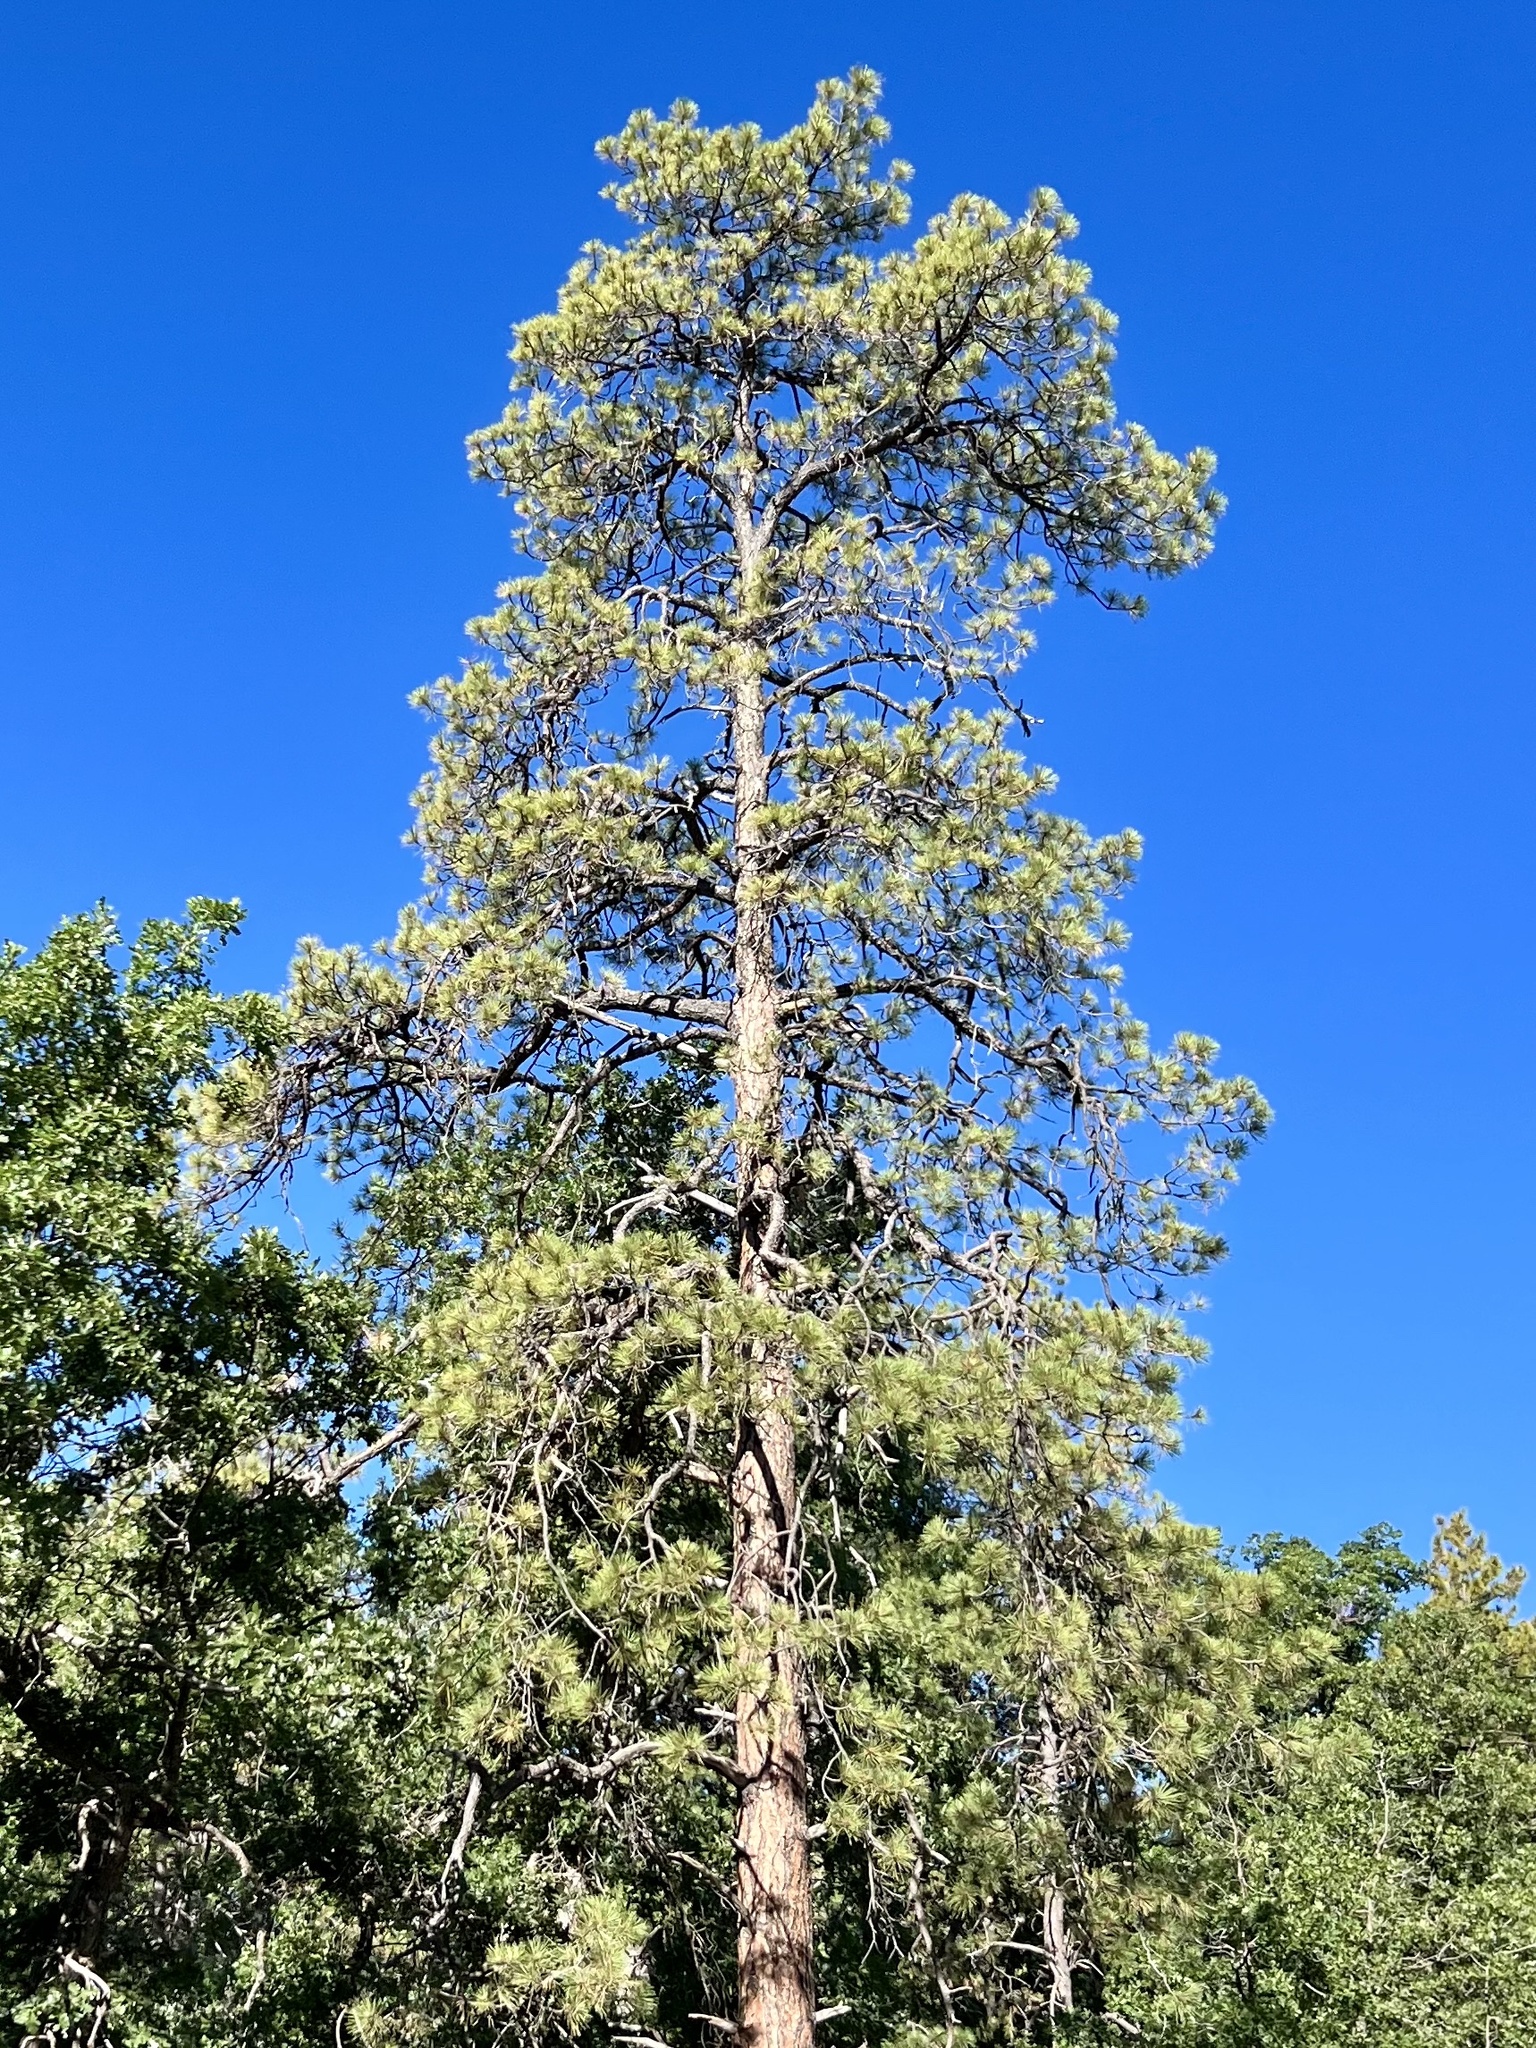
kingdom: Plantae
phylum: Tracheophyta
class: Pinopsida
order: Pinales
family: Pinaceae
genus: Pinus
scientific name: Pinus ponderosa
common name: Western yellow-pine
